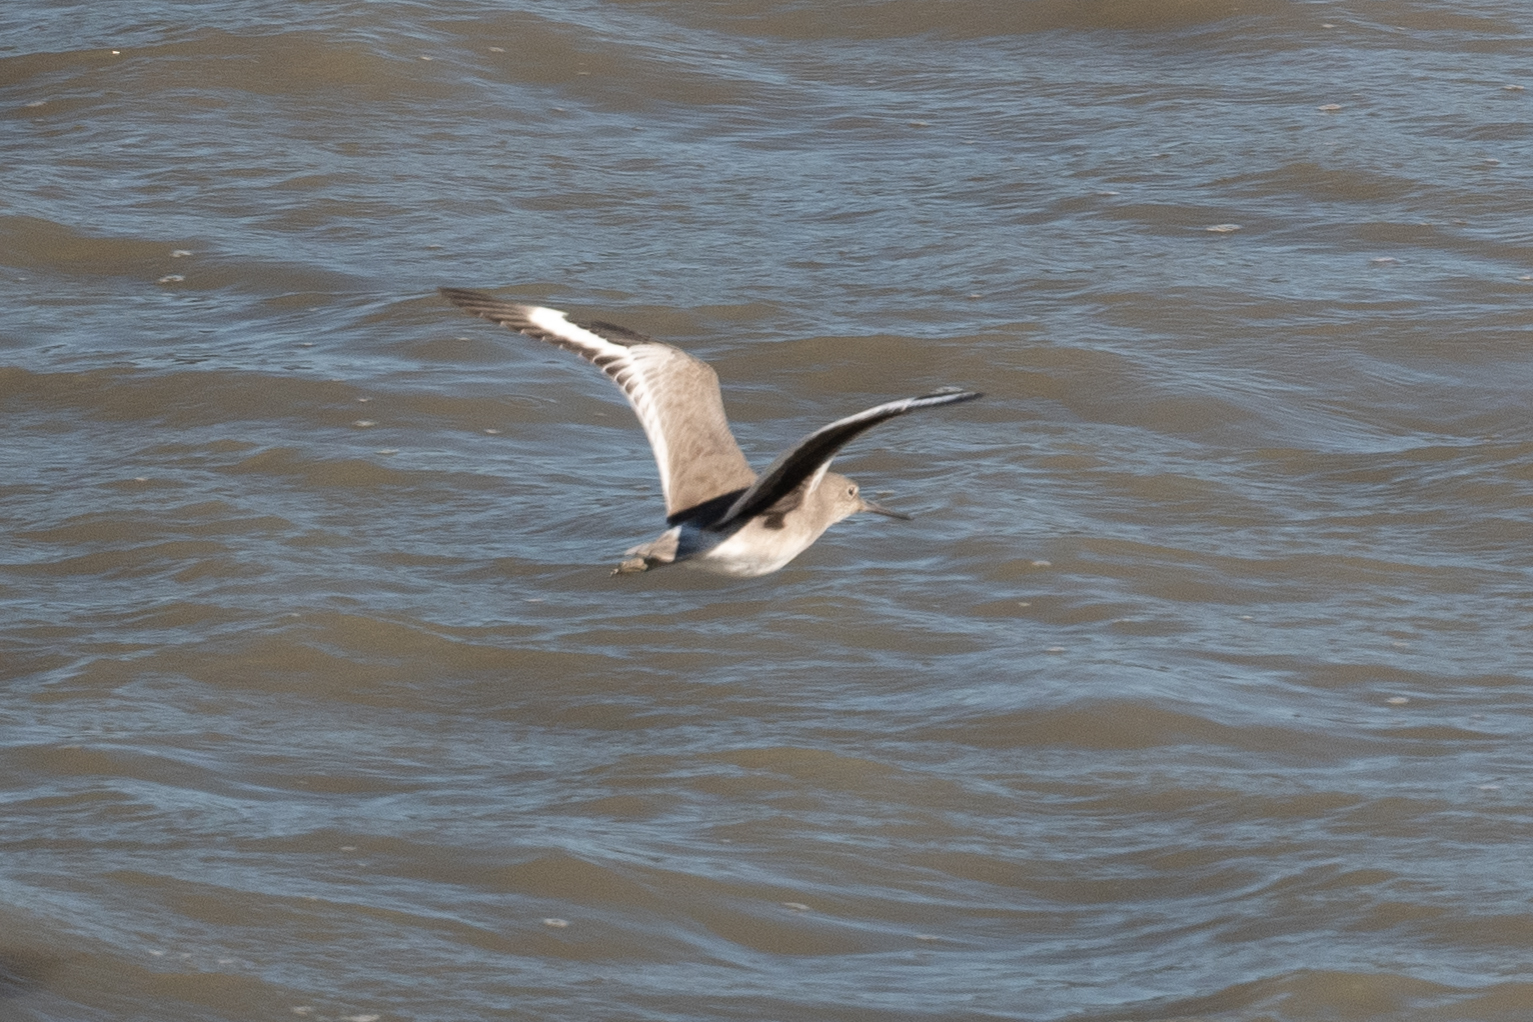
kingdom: Animalia
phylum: Chordata
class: Aves
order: Charadriiformes
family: Scolopacidae
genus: Tringa
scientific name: Tringa semipalmata
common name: Willet
